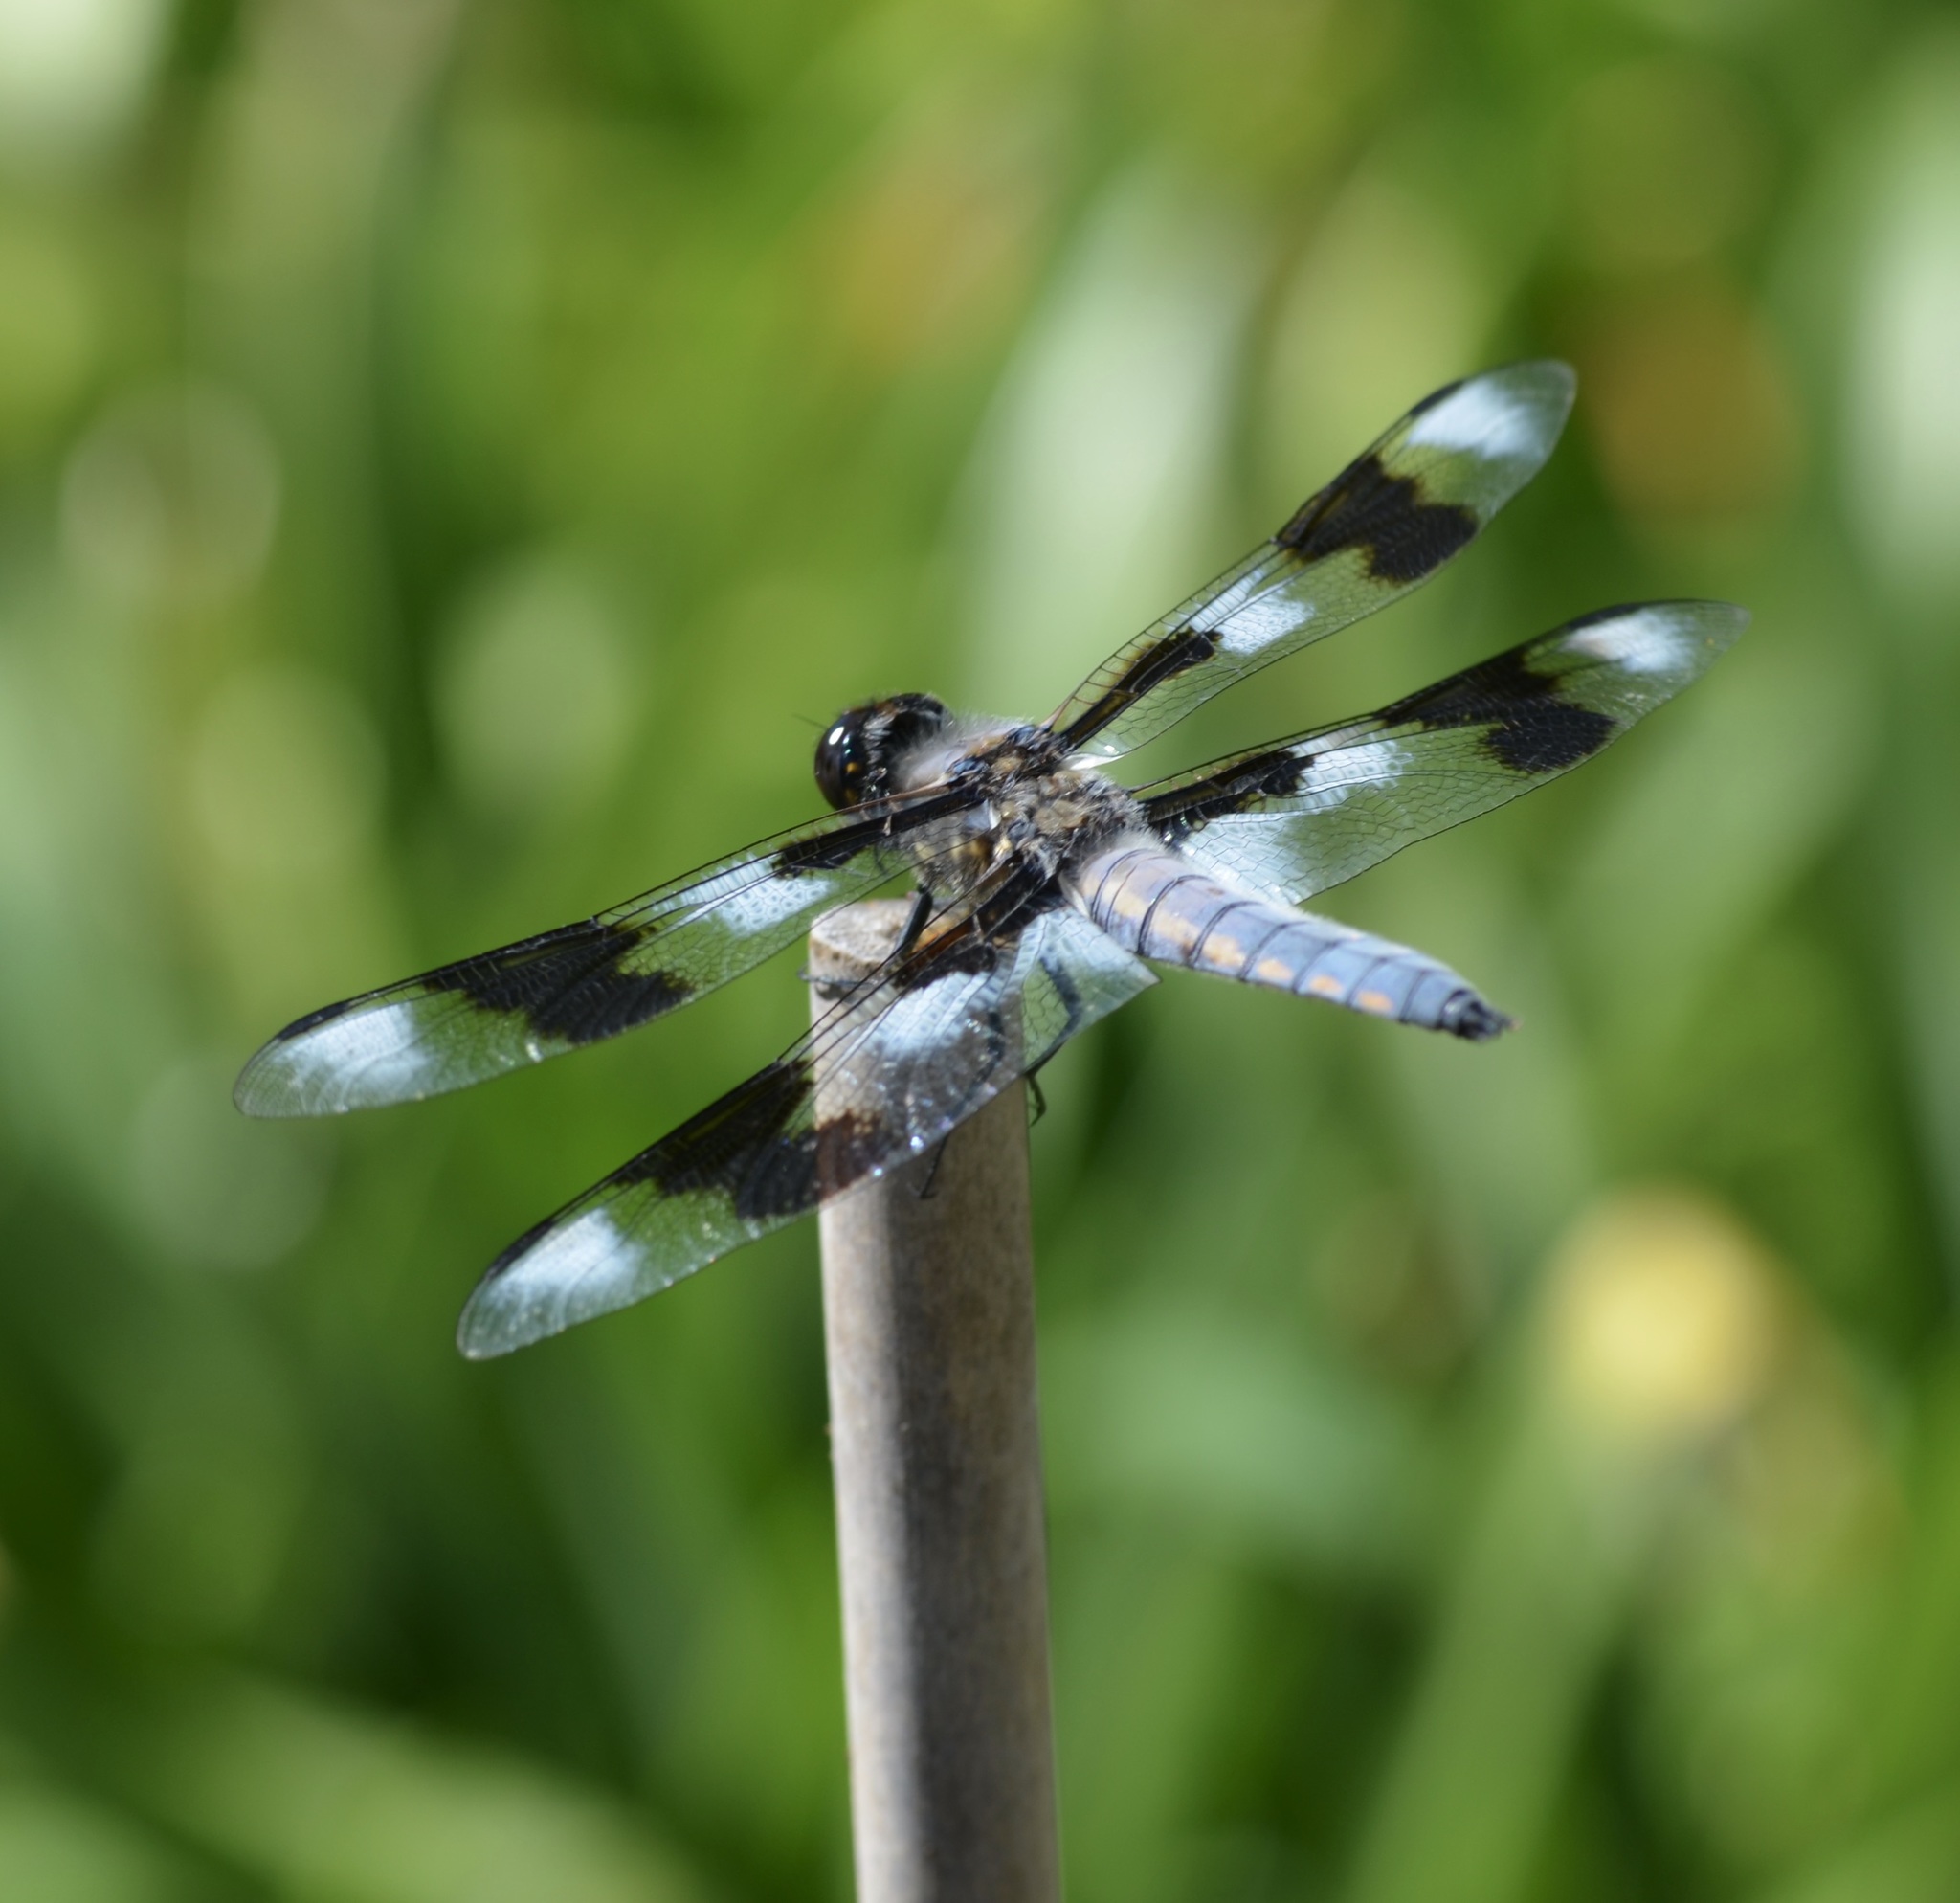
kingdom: Animalia
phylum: Arthropoda
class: Insecta
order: Odonata
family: Libellulidae
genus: Libellula
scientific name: Libellula forensis
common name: Eight-spotted skimmer
